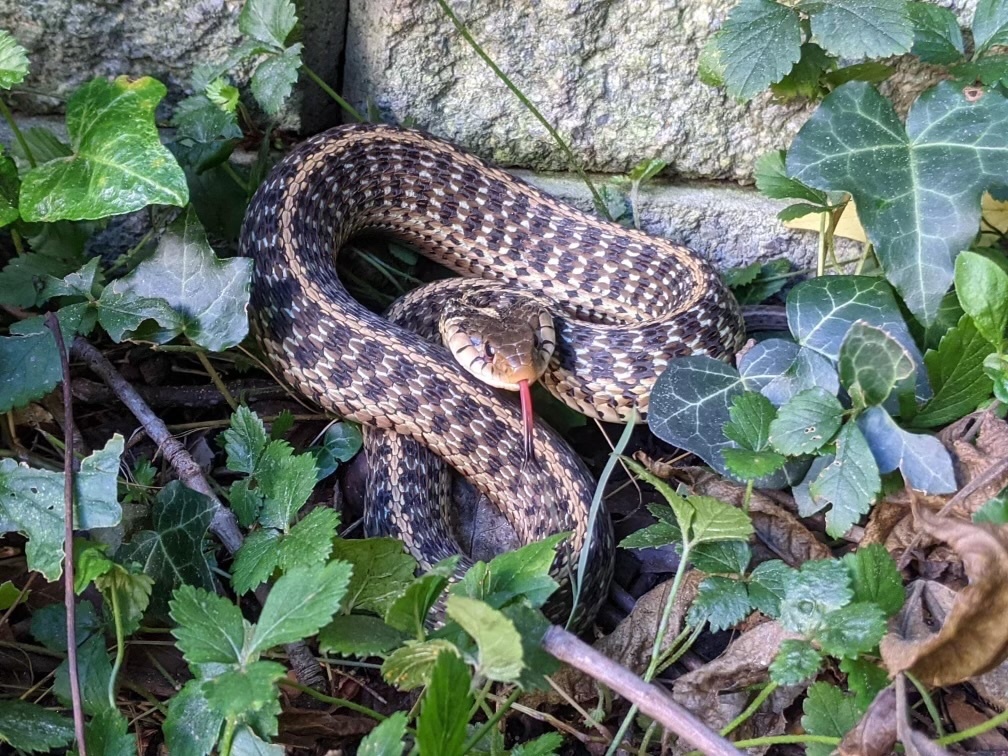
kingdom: Animalia
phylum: Chordata
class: Squamata
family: Colubridae
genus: Thamnophis
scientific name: Thamnophis sirtalis
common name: Common garter snake
